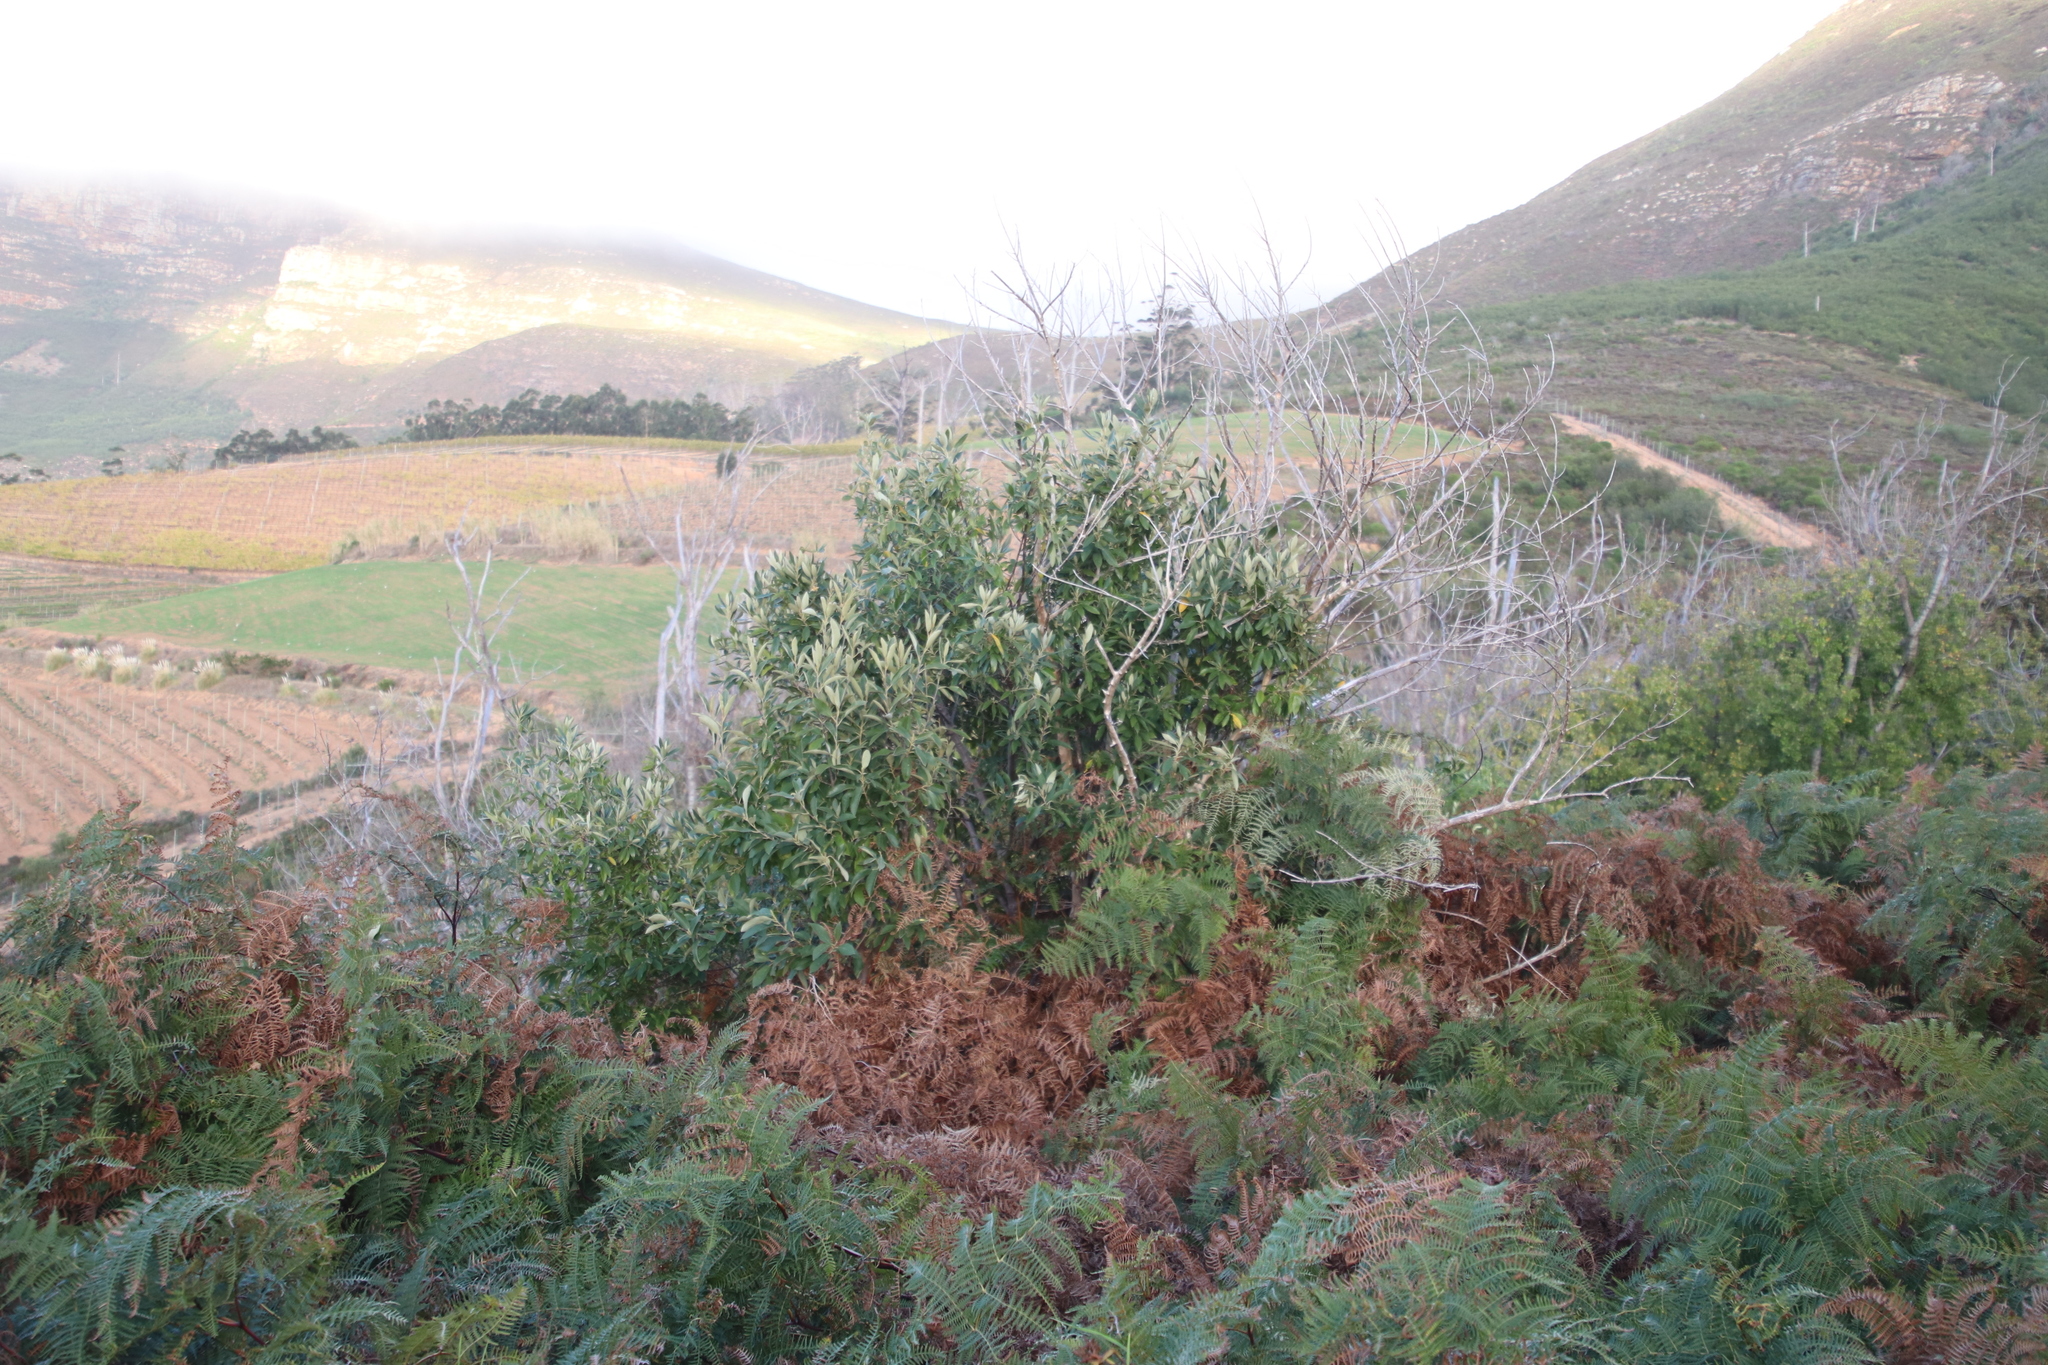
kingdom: Plantae
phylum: Tracheophyta
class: Magnoliopsida
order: Malpighiales
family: Achariaceae
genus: Kiggelaria
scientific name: Kiggelaria africana
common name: Wild peach
